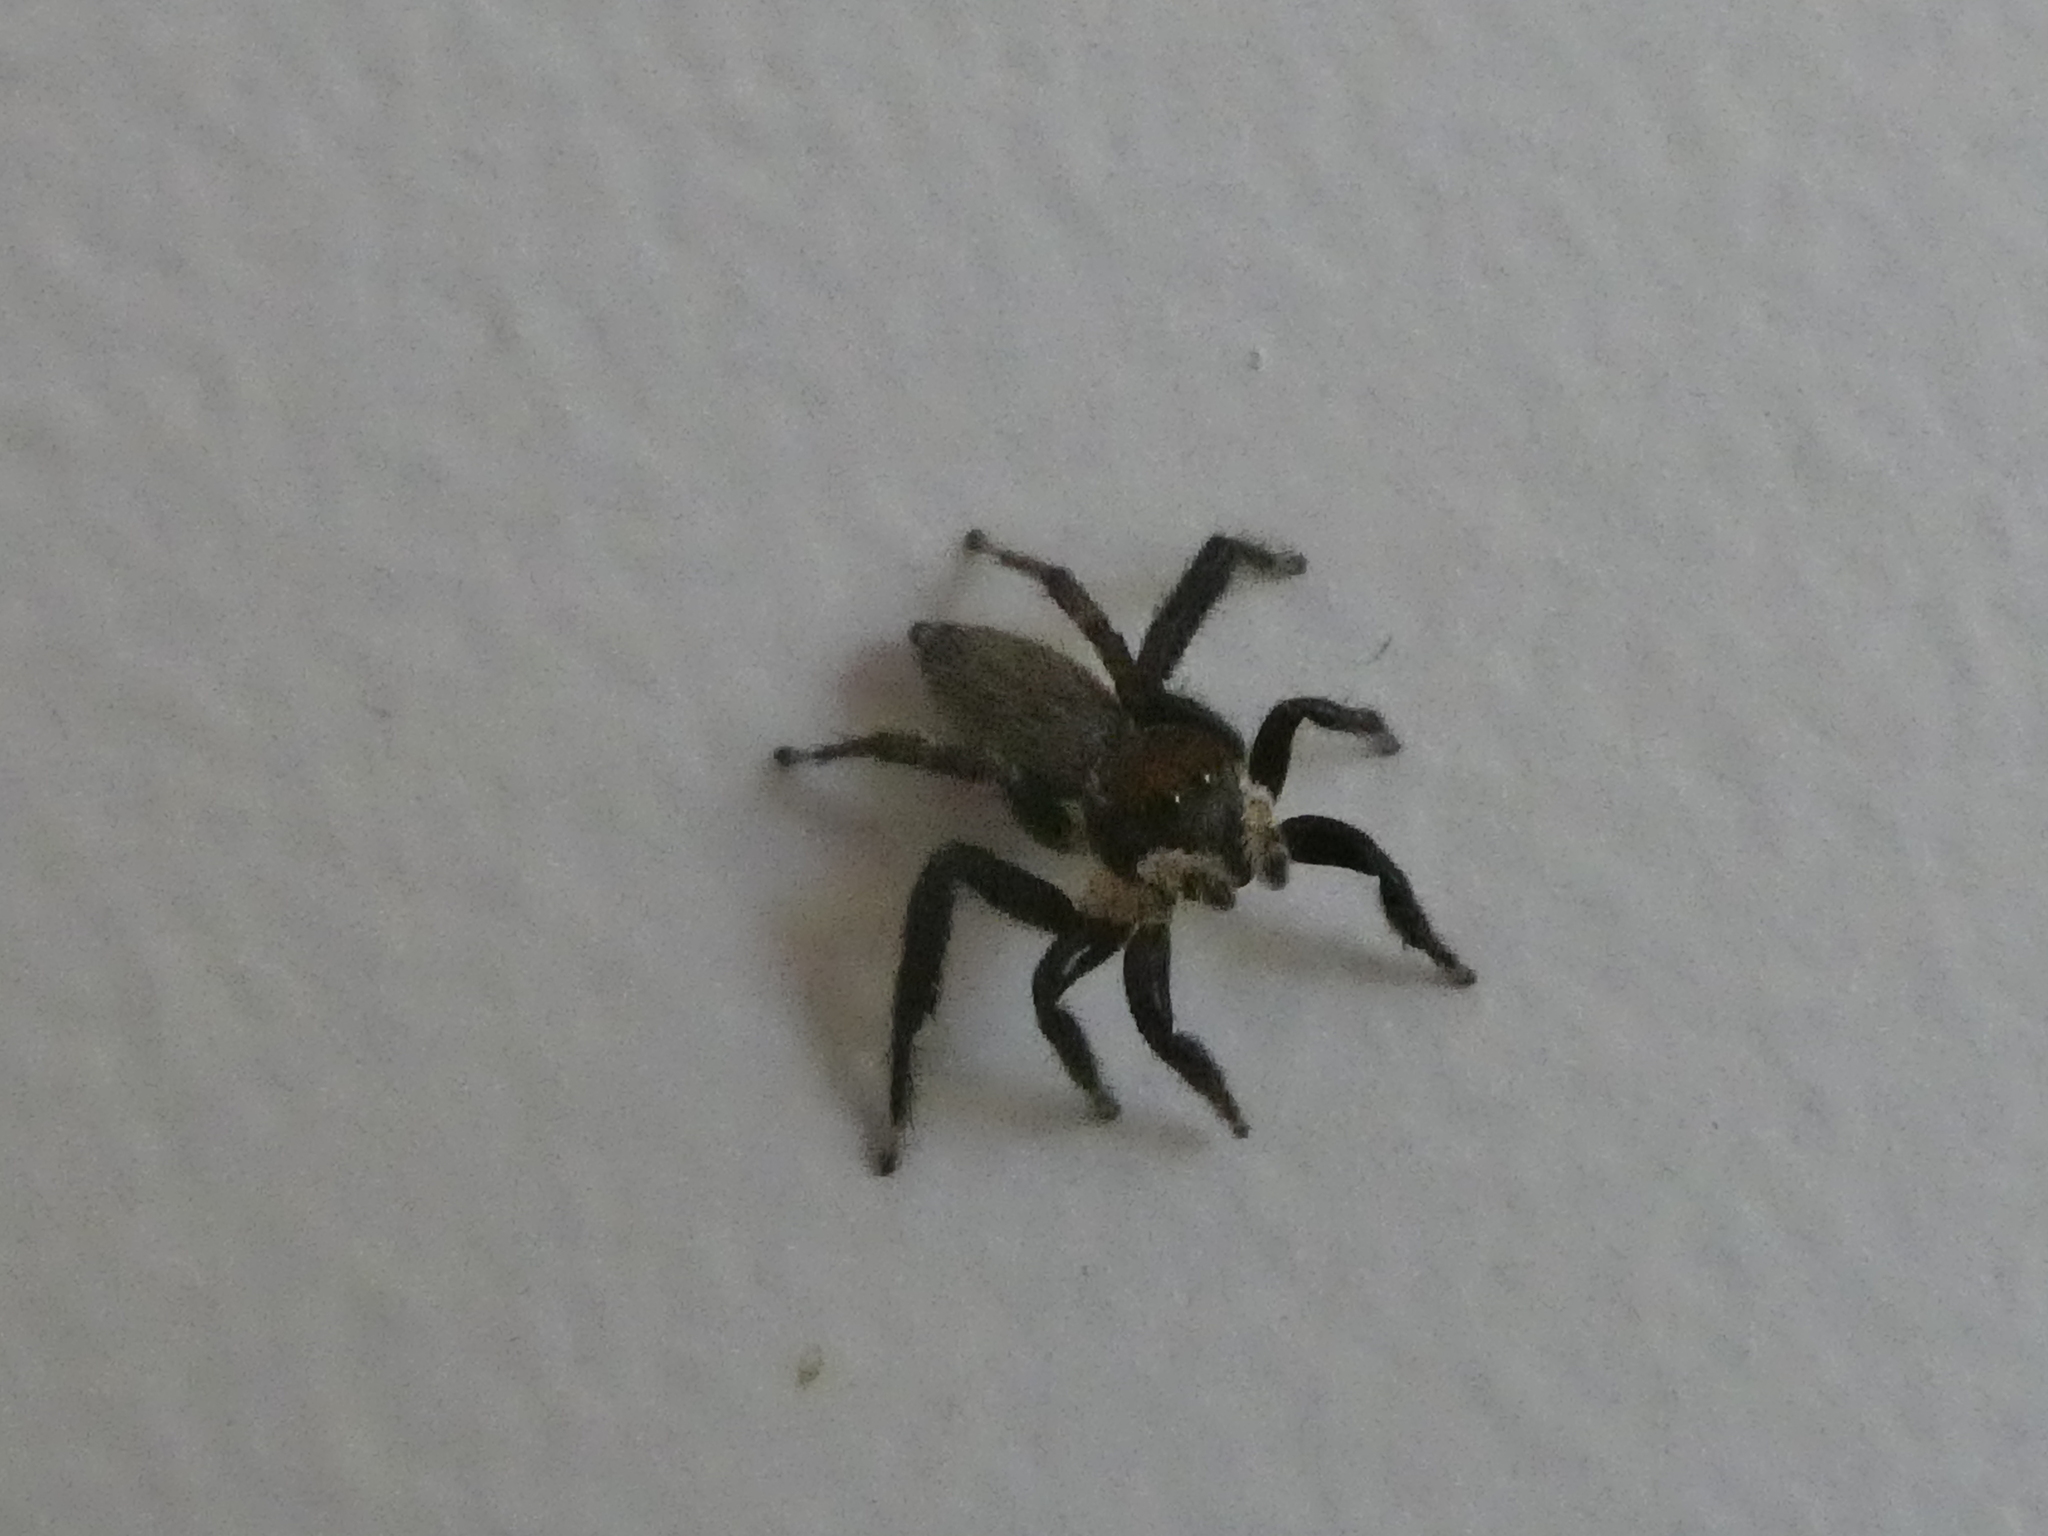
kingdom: Animalia
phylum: Arthropoda
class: Arachnida
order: Araneae
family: Salticidae
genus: Maratus
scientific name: Maratus griseus
